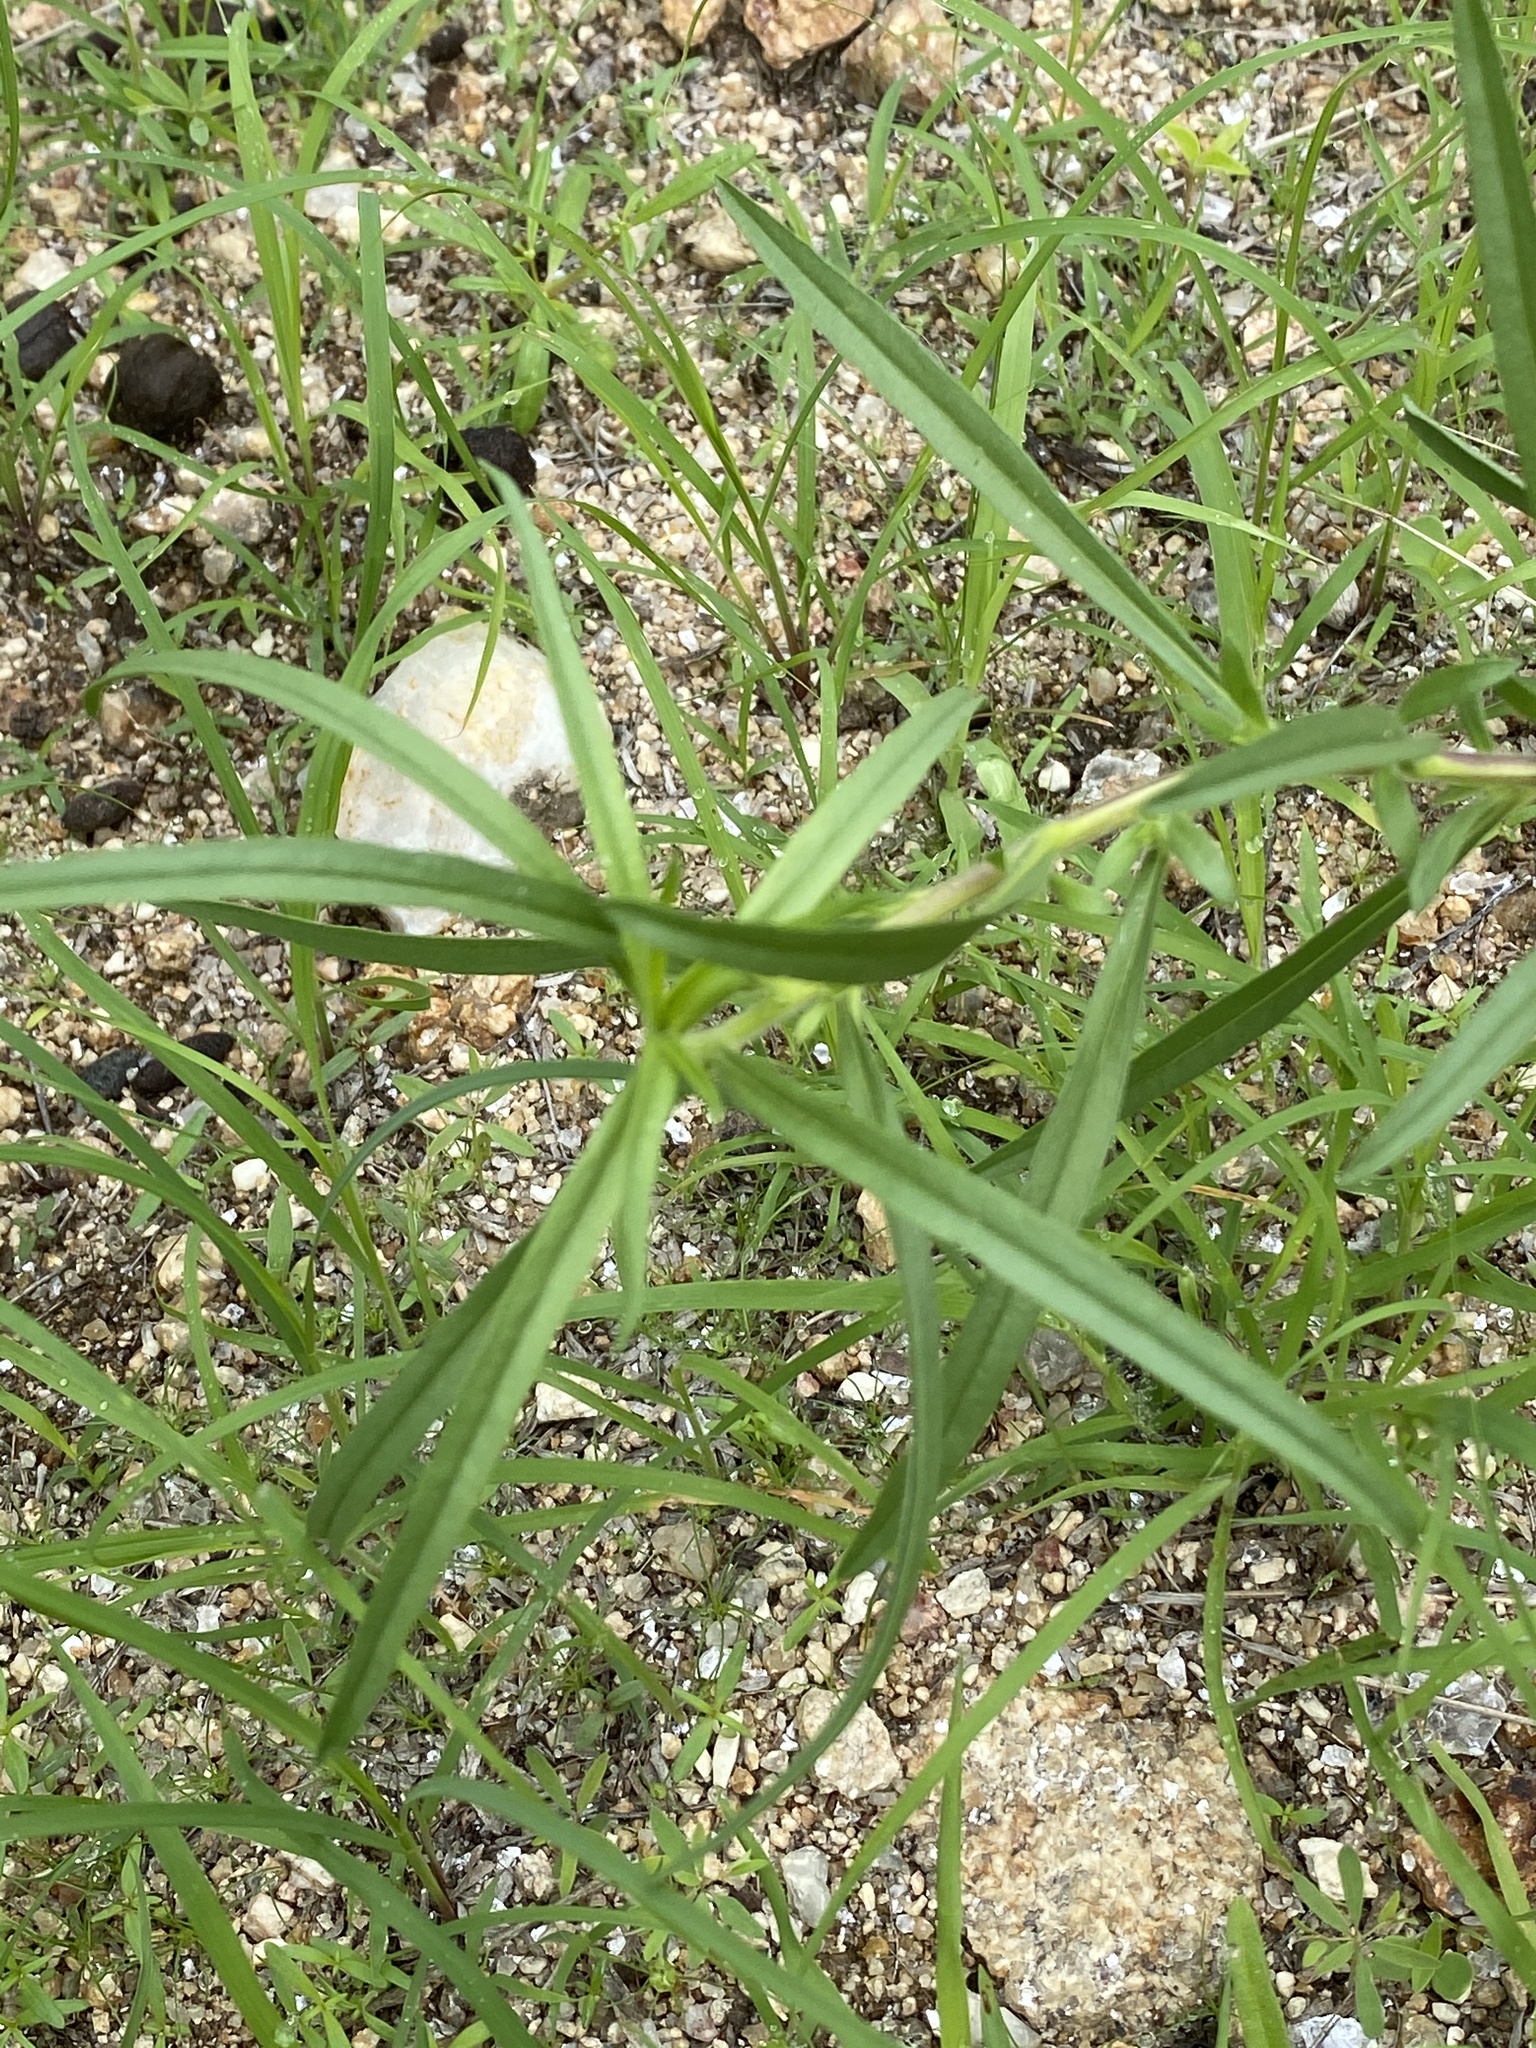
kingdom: Plantae
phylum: Tracheophyta
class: Magnoliopsida
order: Lamiales
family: Scrophulariaceae
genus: Aptosimum
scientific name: Aptosimum arenarium
